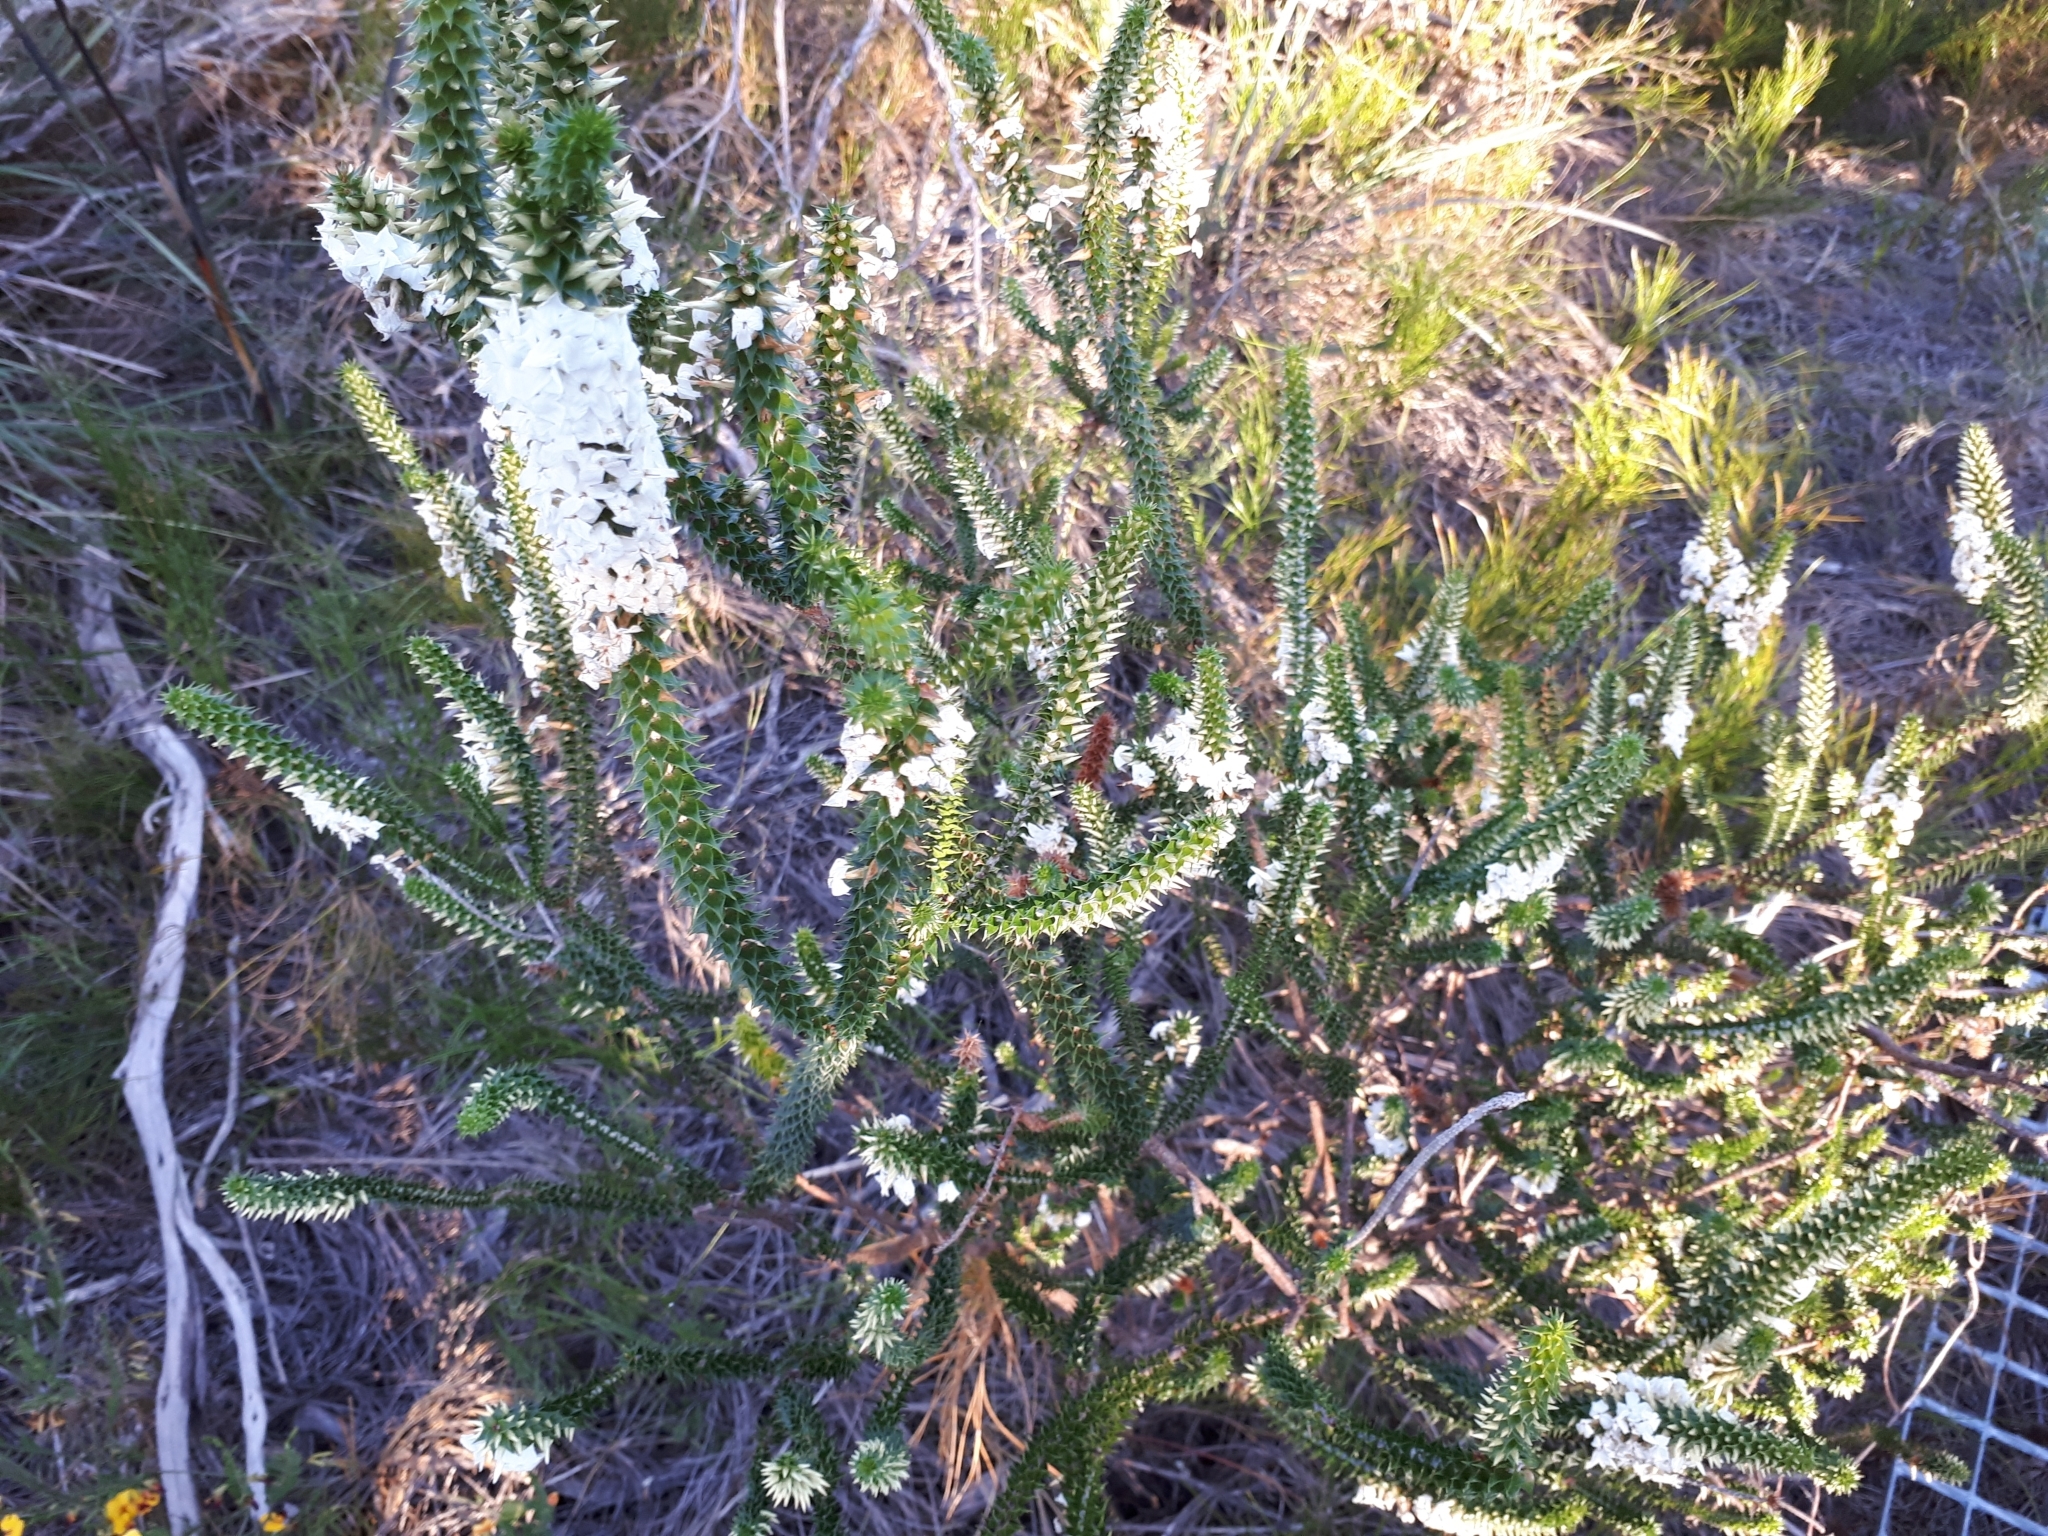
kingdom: Plantae
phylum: Tracheophyta
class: Magnoliopsida
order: Ericales
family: Ericaceae
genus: Woollsia
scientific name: Woollsia pungens
